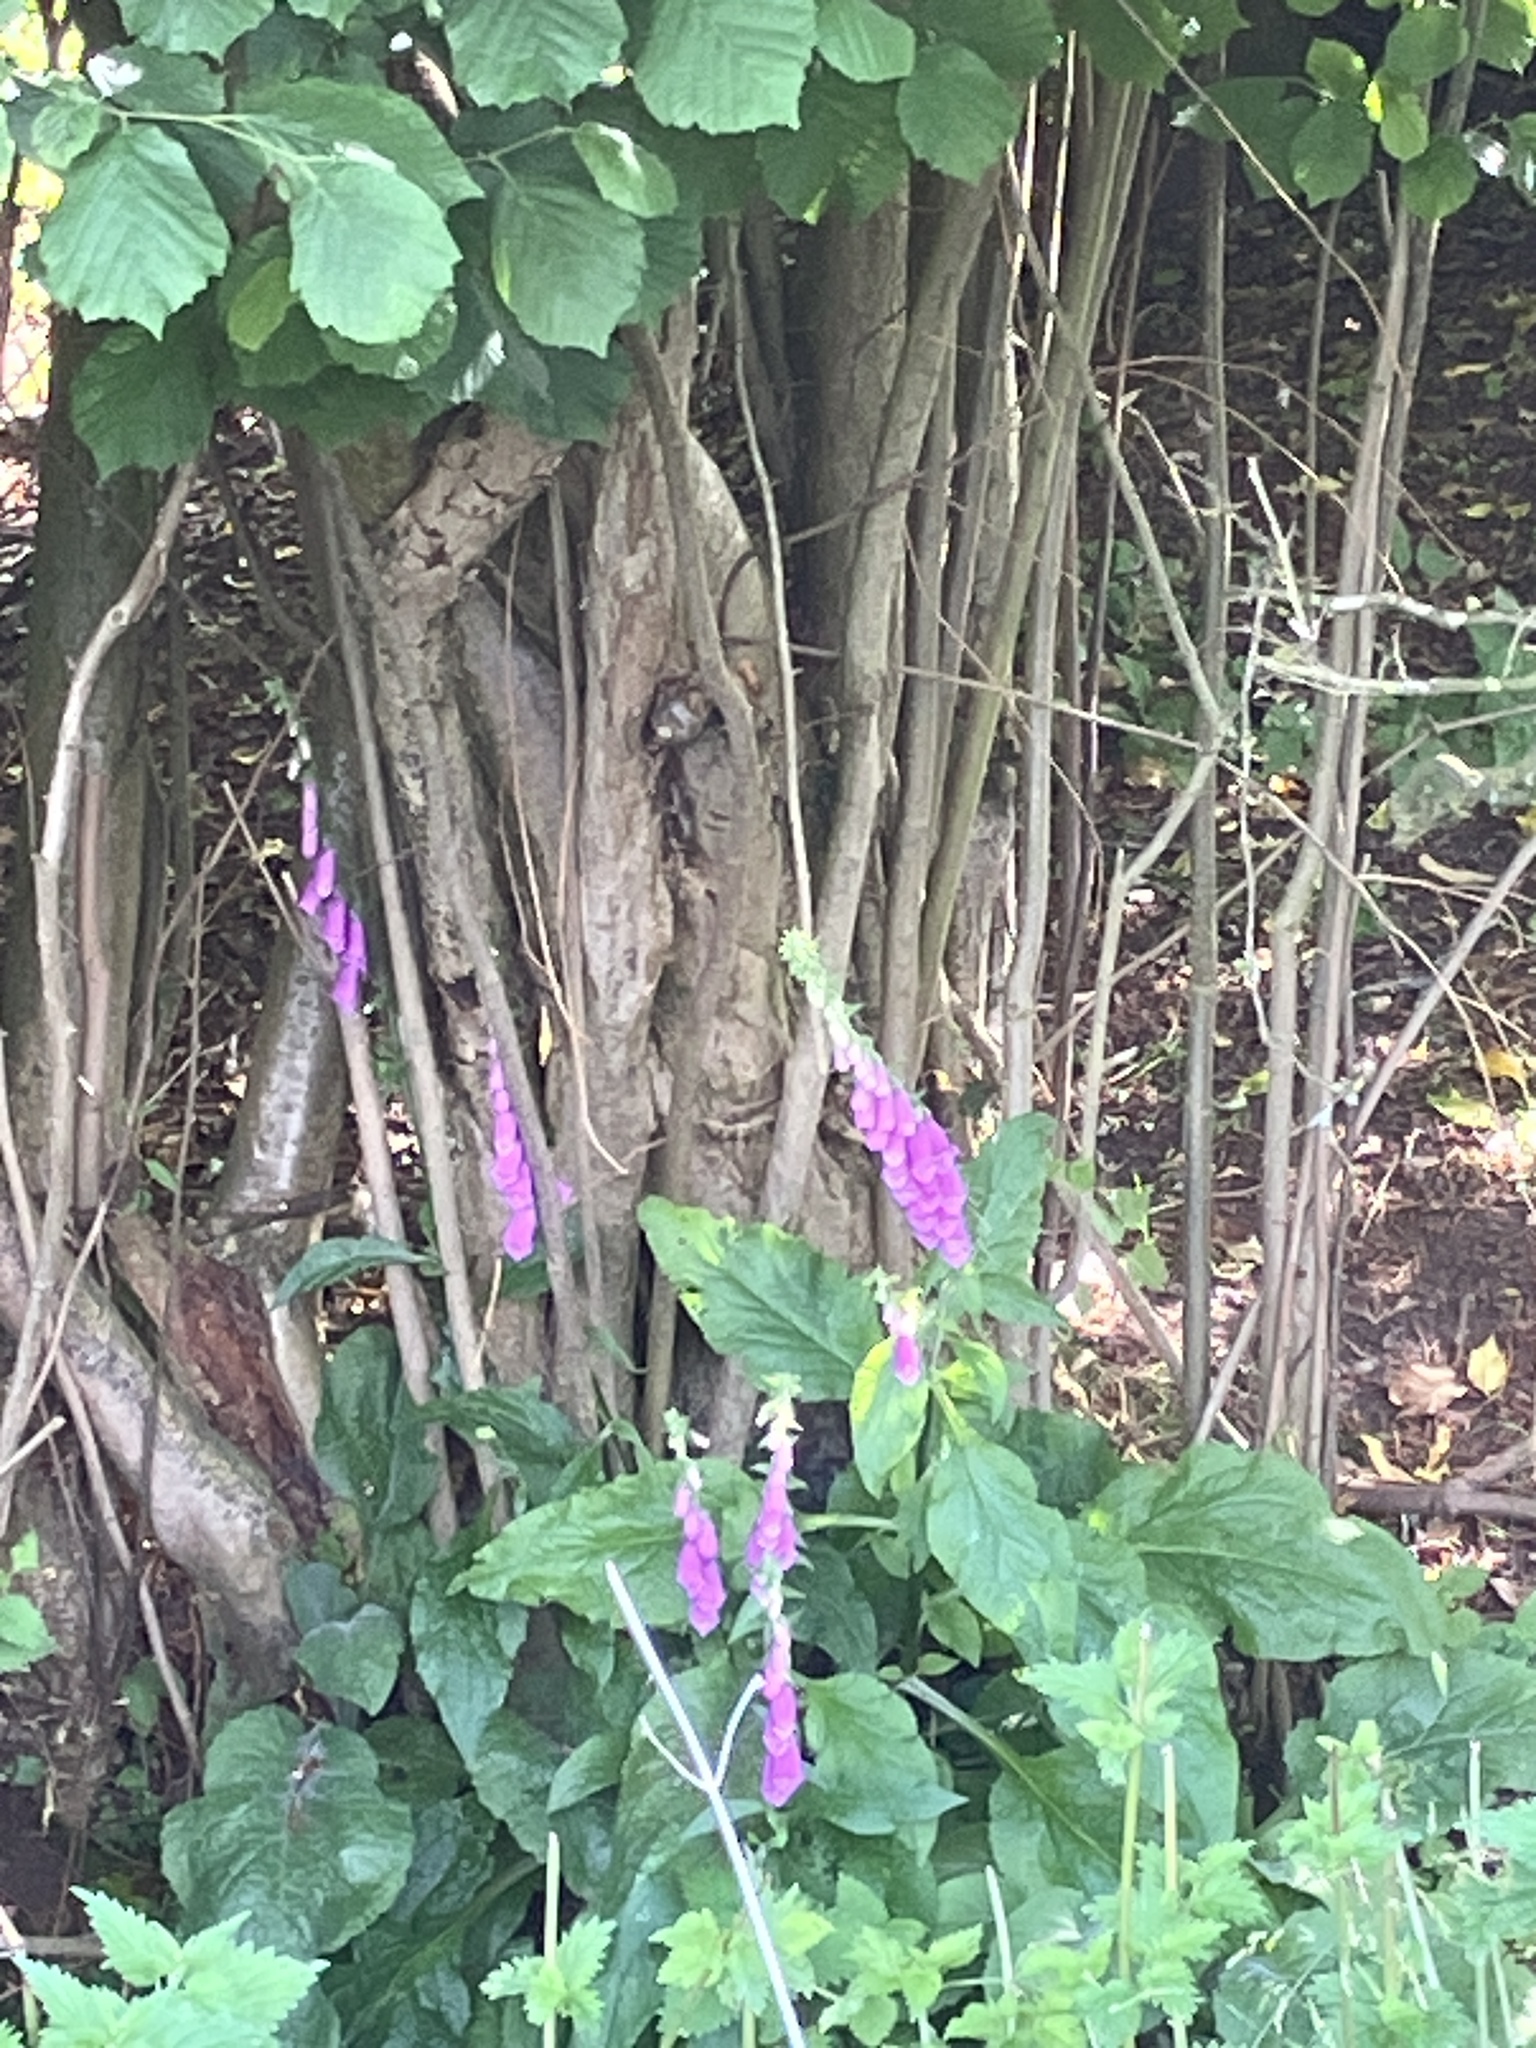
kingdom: Plantae
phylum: Tracheophyta
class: Magnoliopsida
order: Lamiales
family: Plantaginaceae
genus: Digitalis
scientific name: Digitalis purpurea
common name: Foxglove
